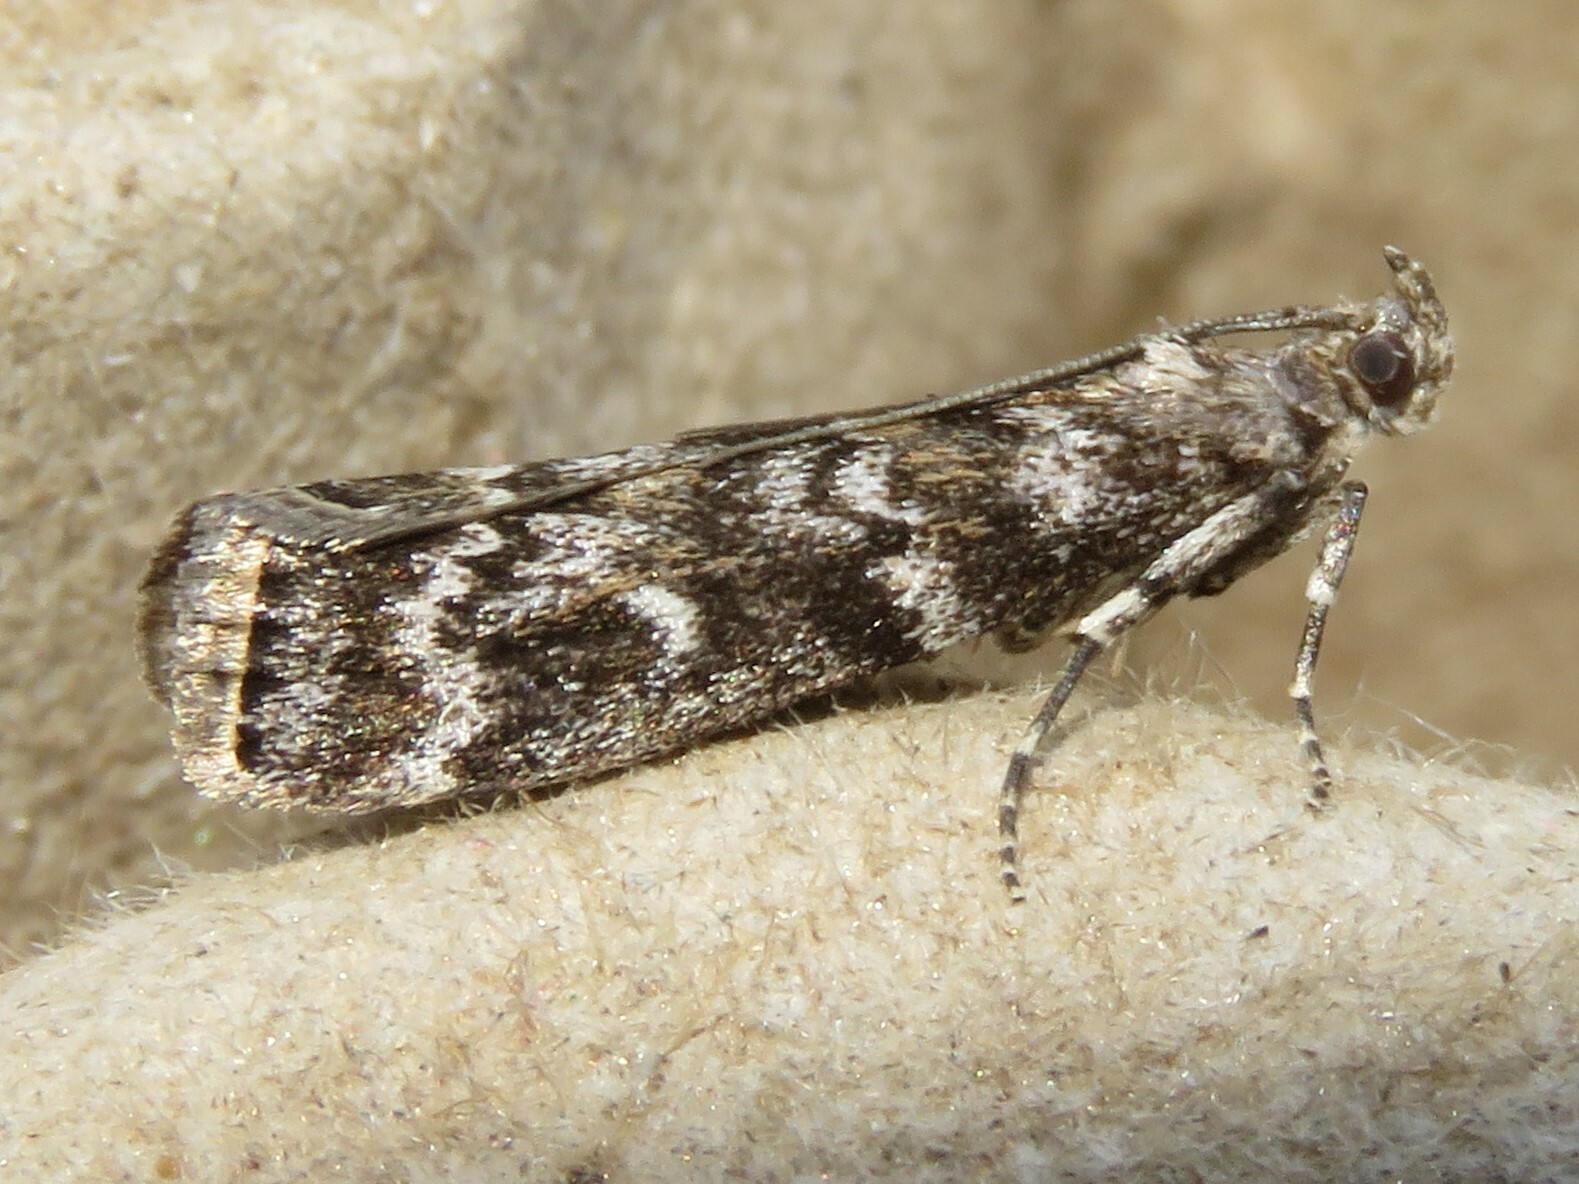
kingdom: Animalia
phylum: Arthropoda
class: Insecta
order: Lepidoptera
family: Pyralidae
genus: Dioryctria
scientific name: Dioryctria abietivorella
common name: Evergreen coneworm moth
